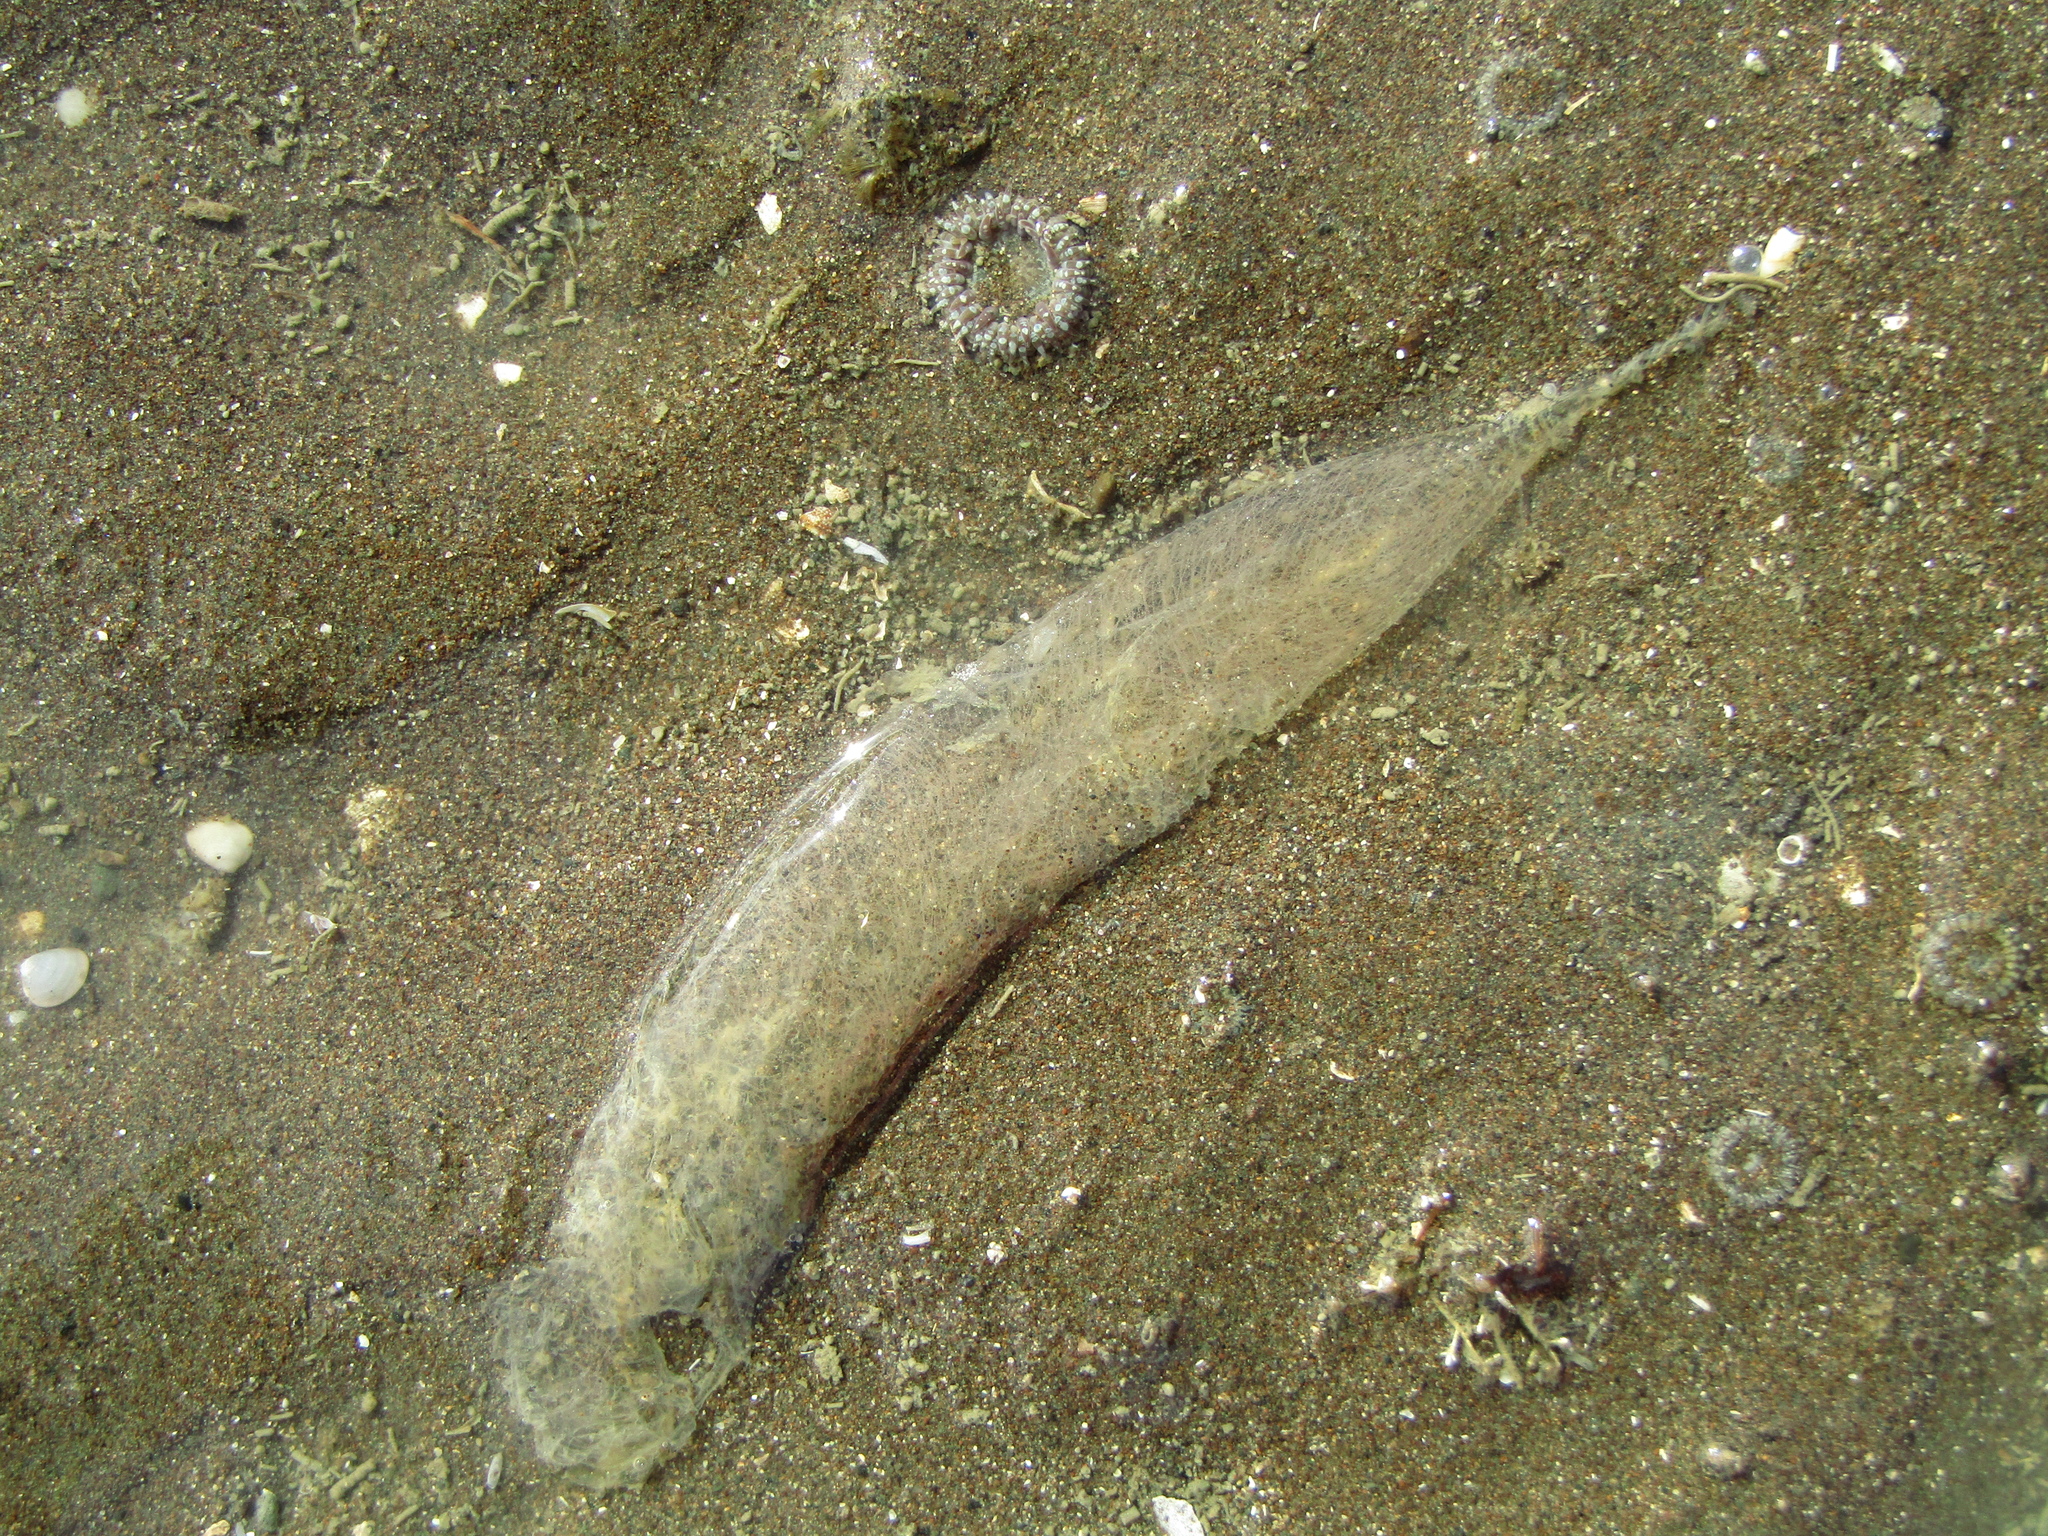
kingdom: Animalia
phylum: Mollusca
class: Gastropoda
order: Cephalaspidea
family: Philinidae
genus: Philine
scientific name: Philine
